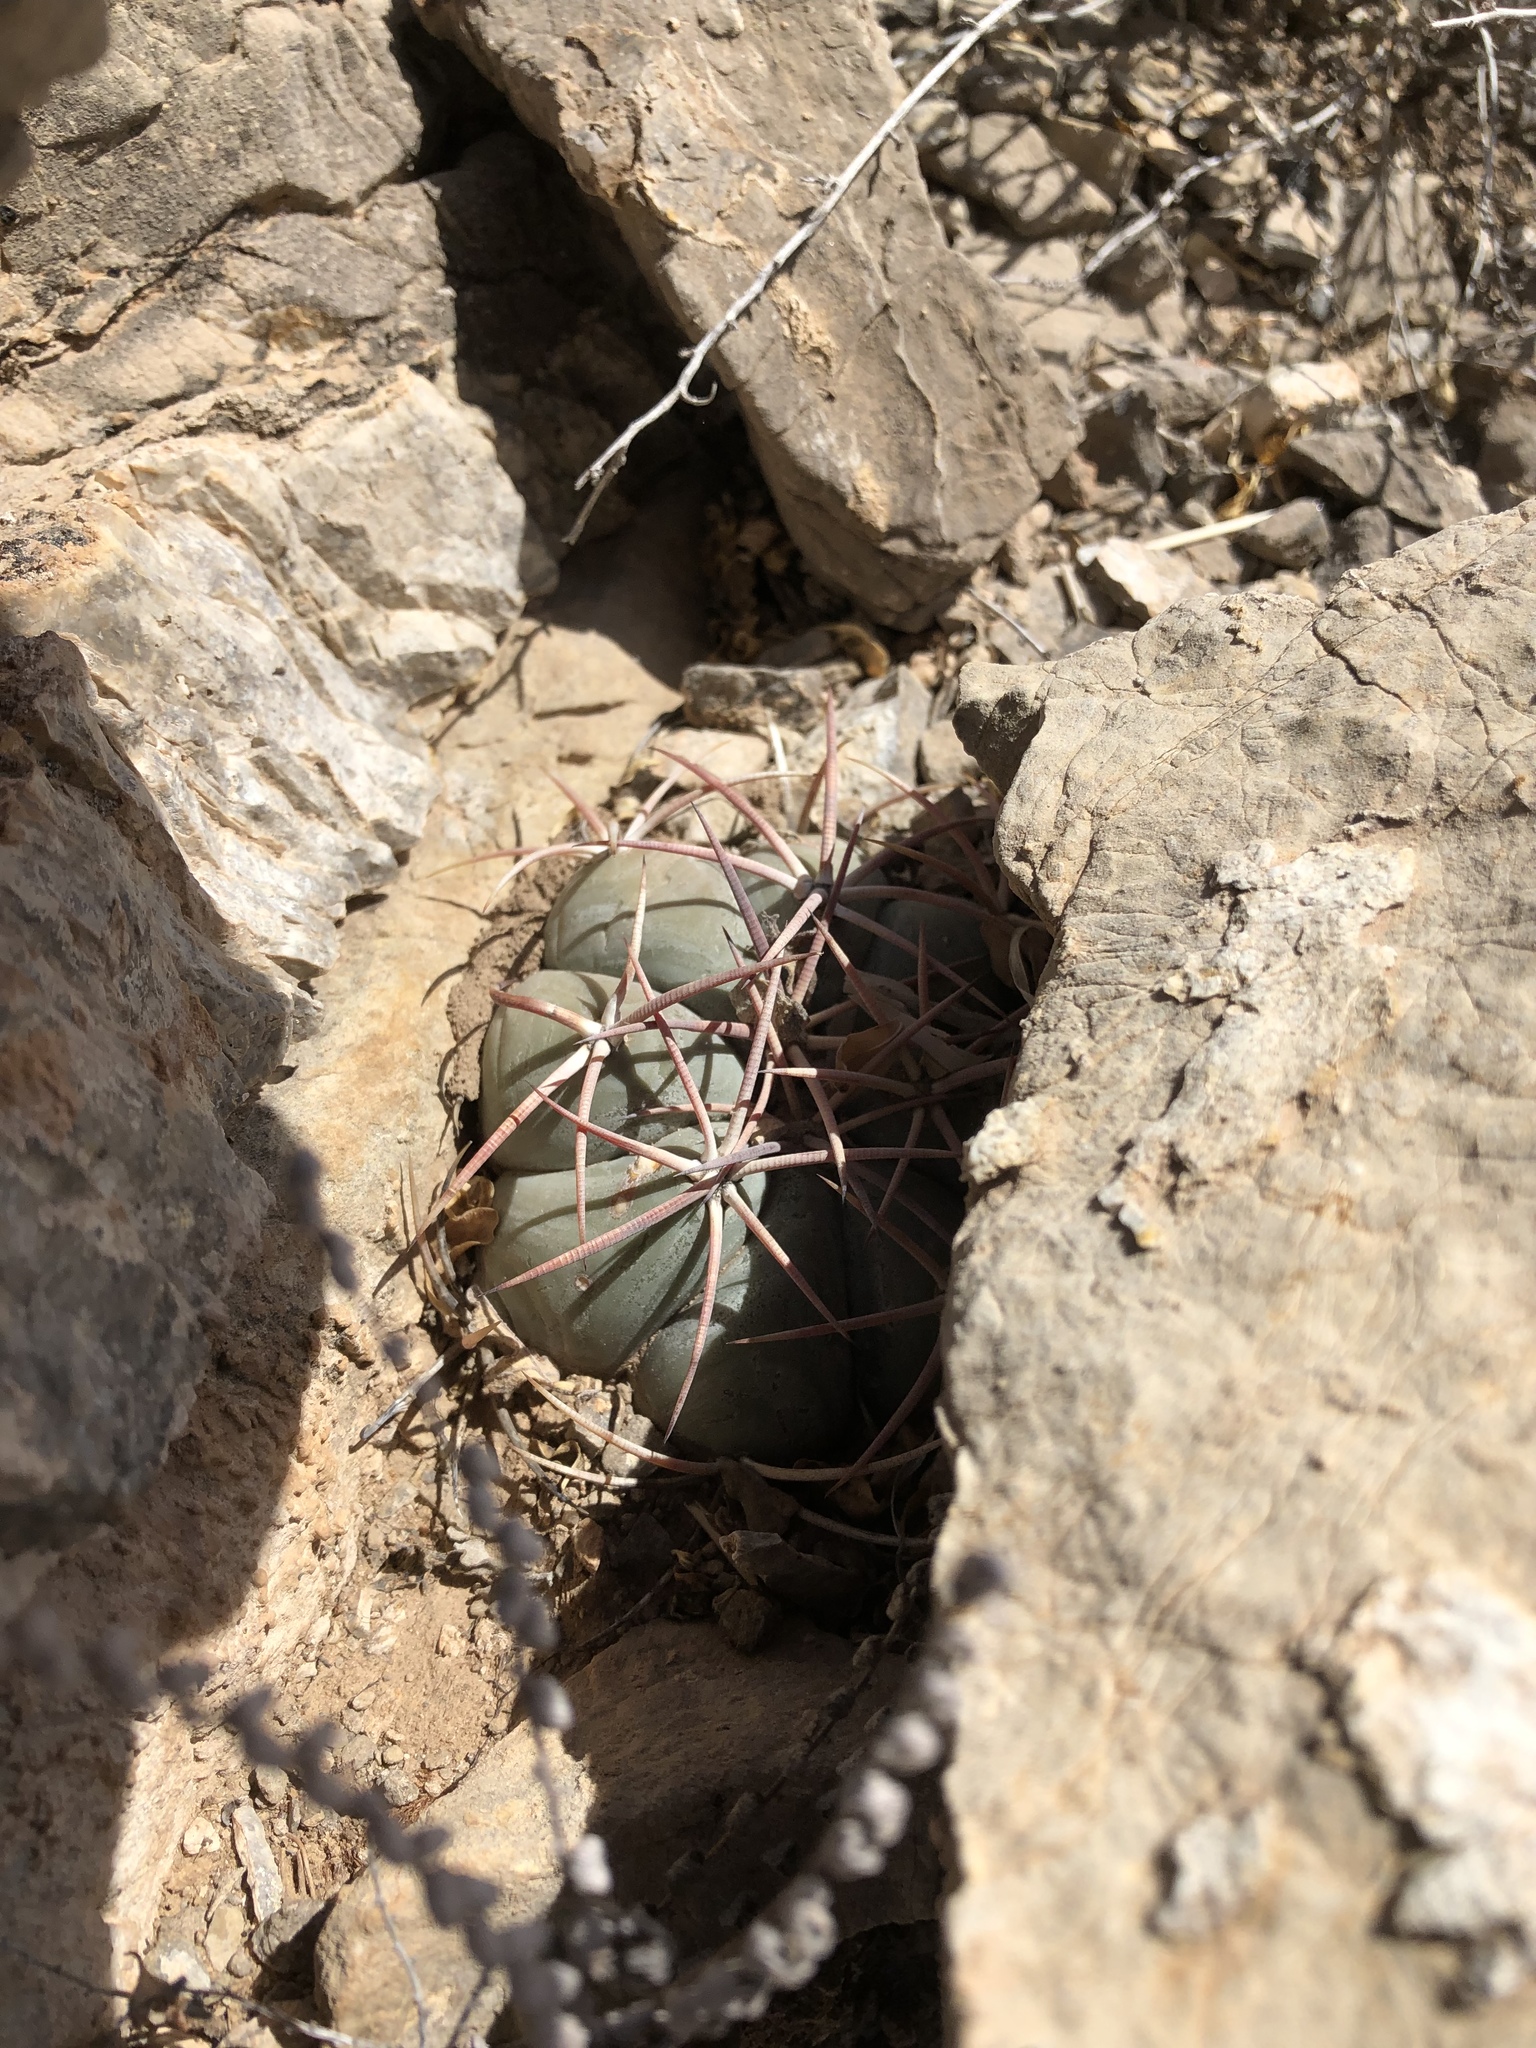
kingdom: Plantae
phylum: Tracheophyta
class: Magnoliopsida
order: Caryophyllales
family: Cactaceae
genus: Echinocactus
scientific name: Echinocactus horizonthalonius
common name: Devilshead
